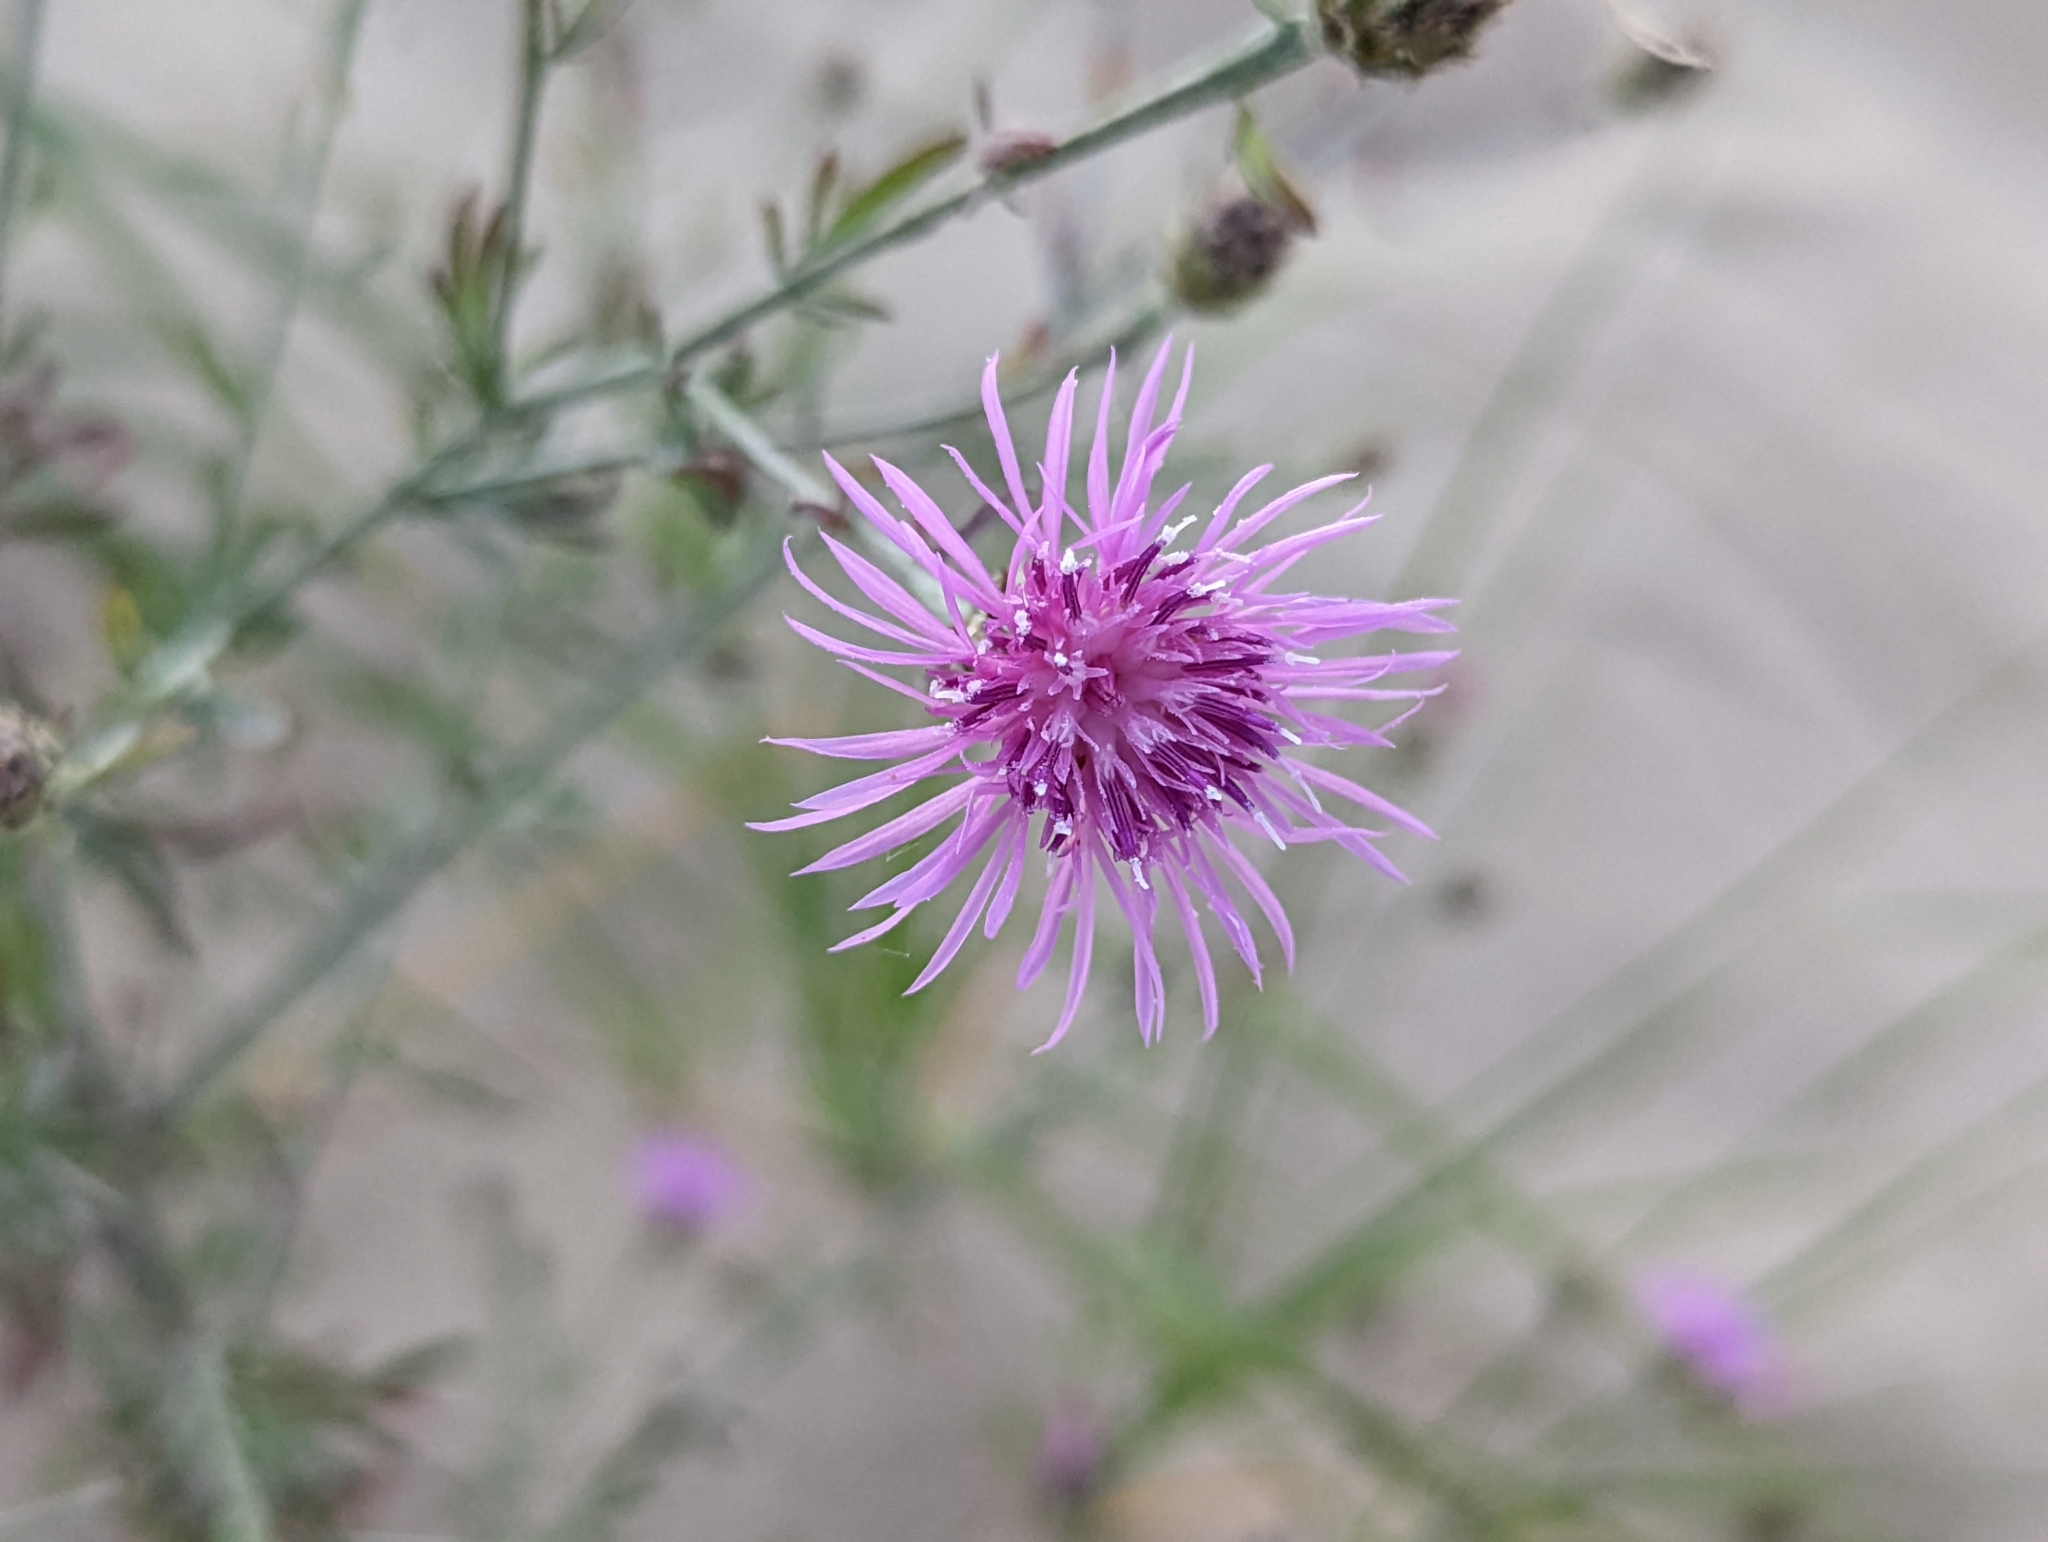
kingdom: Plantae
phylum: Tracheophyta
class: Magnoliopsida
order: Asterales
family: Asteraceae
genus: Centaurea
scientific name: Centaurea stoebe
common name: Spotted knapweed
